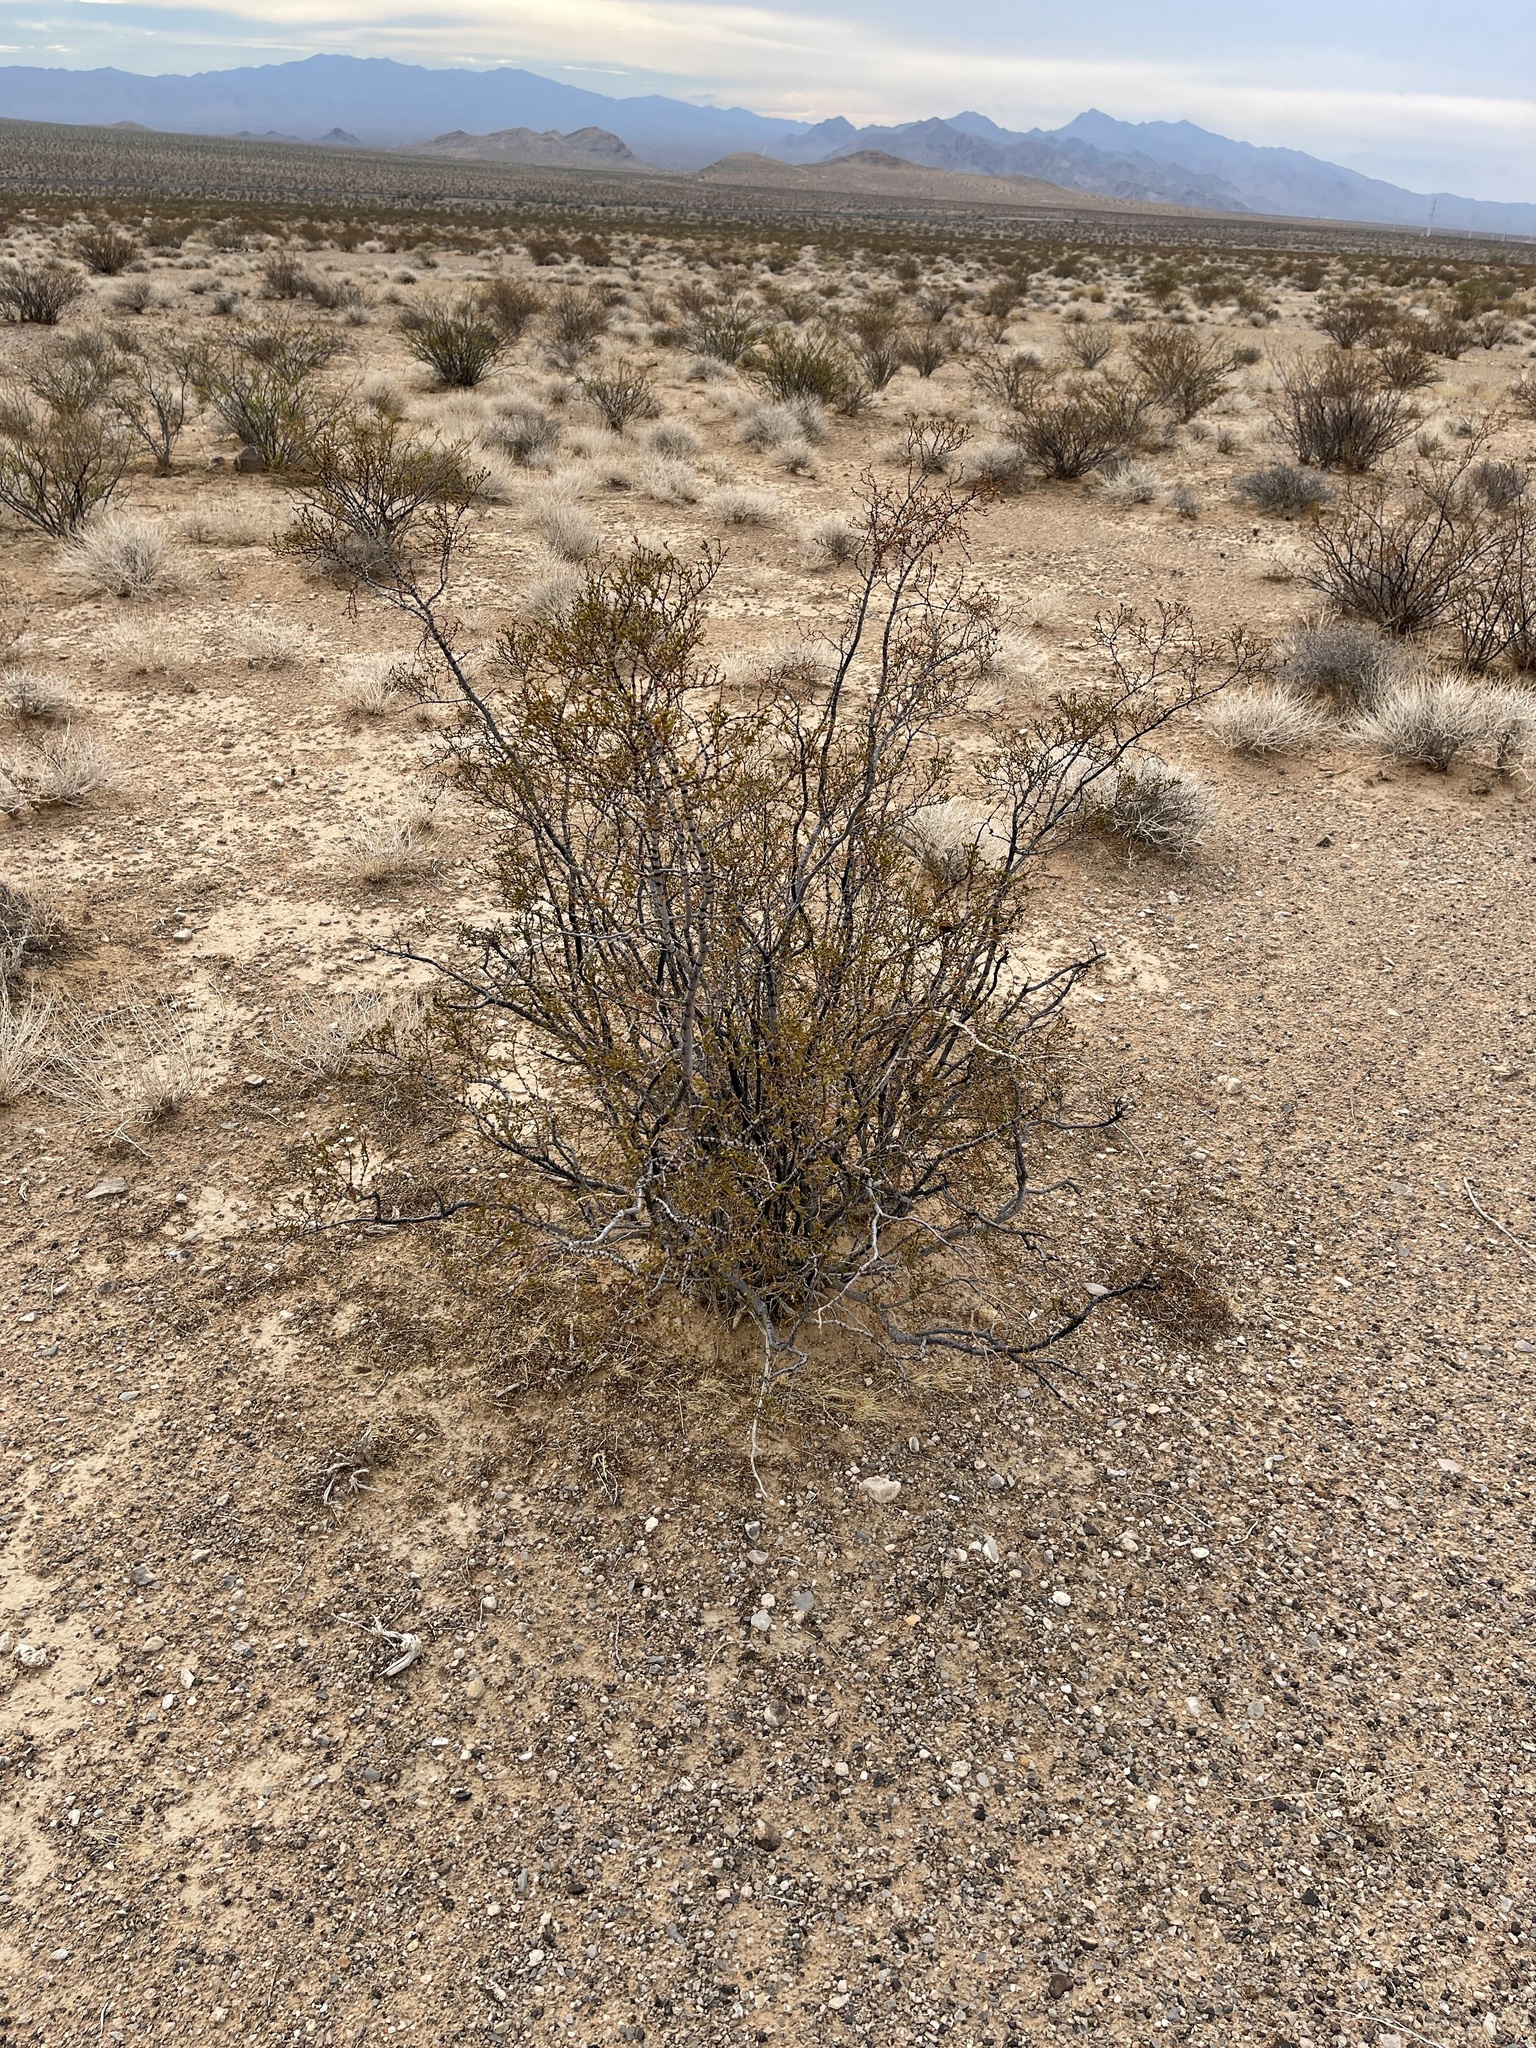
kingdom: Plantae
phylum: Tracheophyta
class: Magnoliopsida
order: Zygophyllales
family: Zygophyllaceae
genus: Larrea
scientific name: Larrea tridentata
